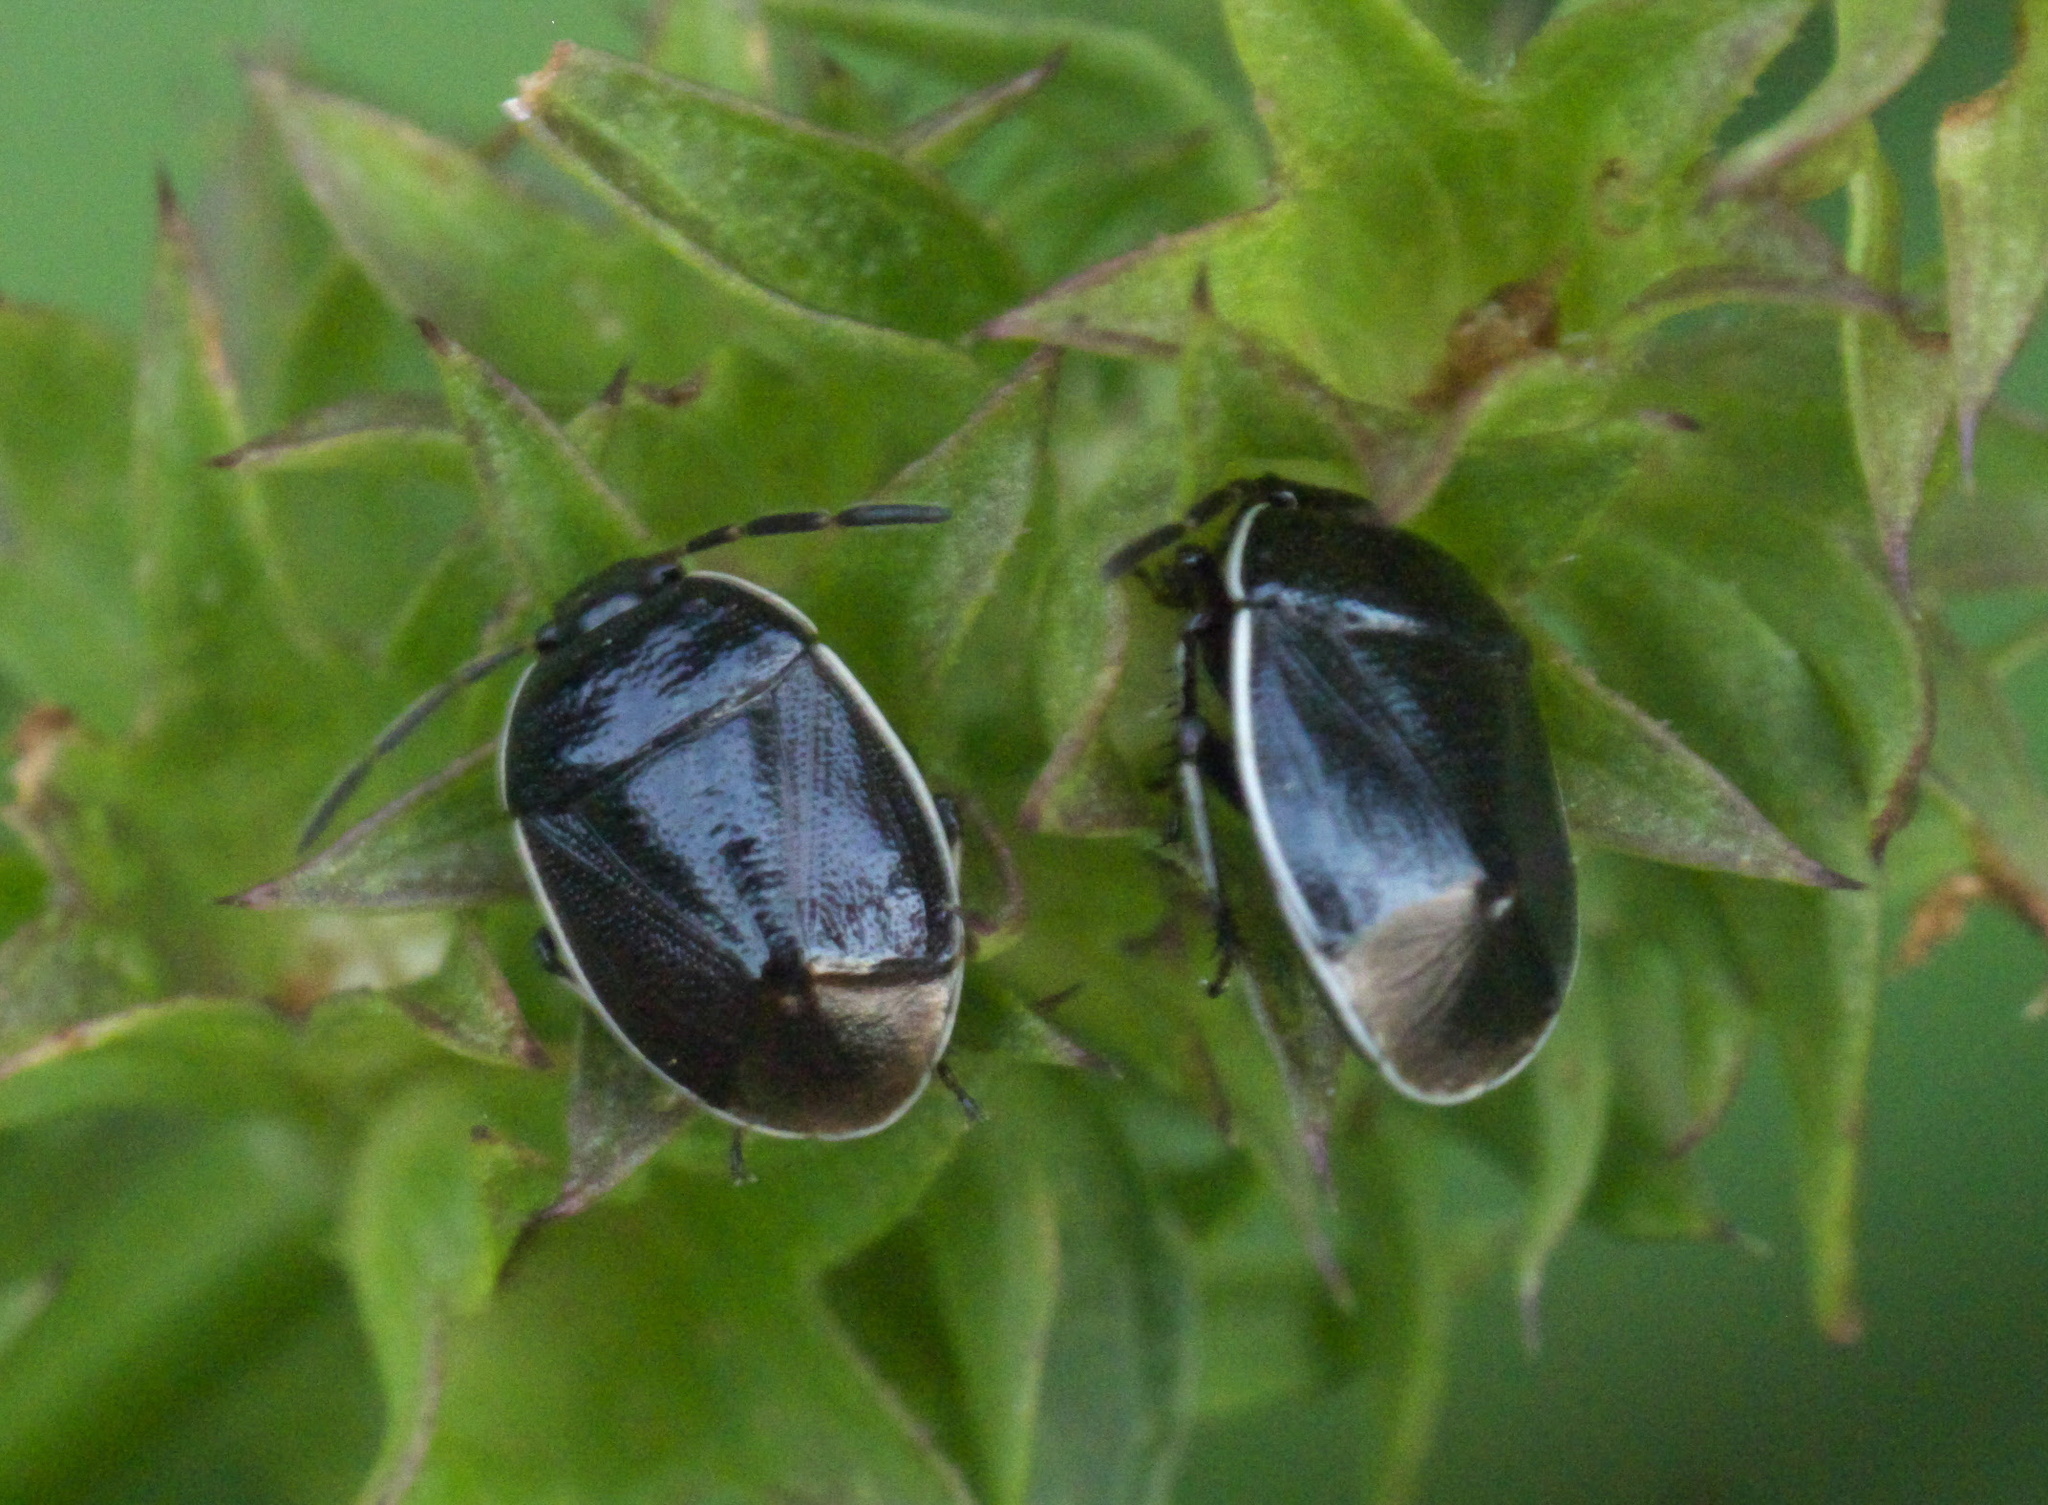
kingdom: Animalia
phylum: Arthropoda
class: Insecta
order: Hemiptera
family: Cydnidae
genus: Sehirus
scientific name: Sehirus cinctus
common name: White-margined burrower bug
